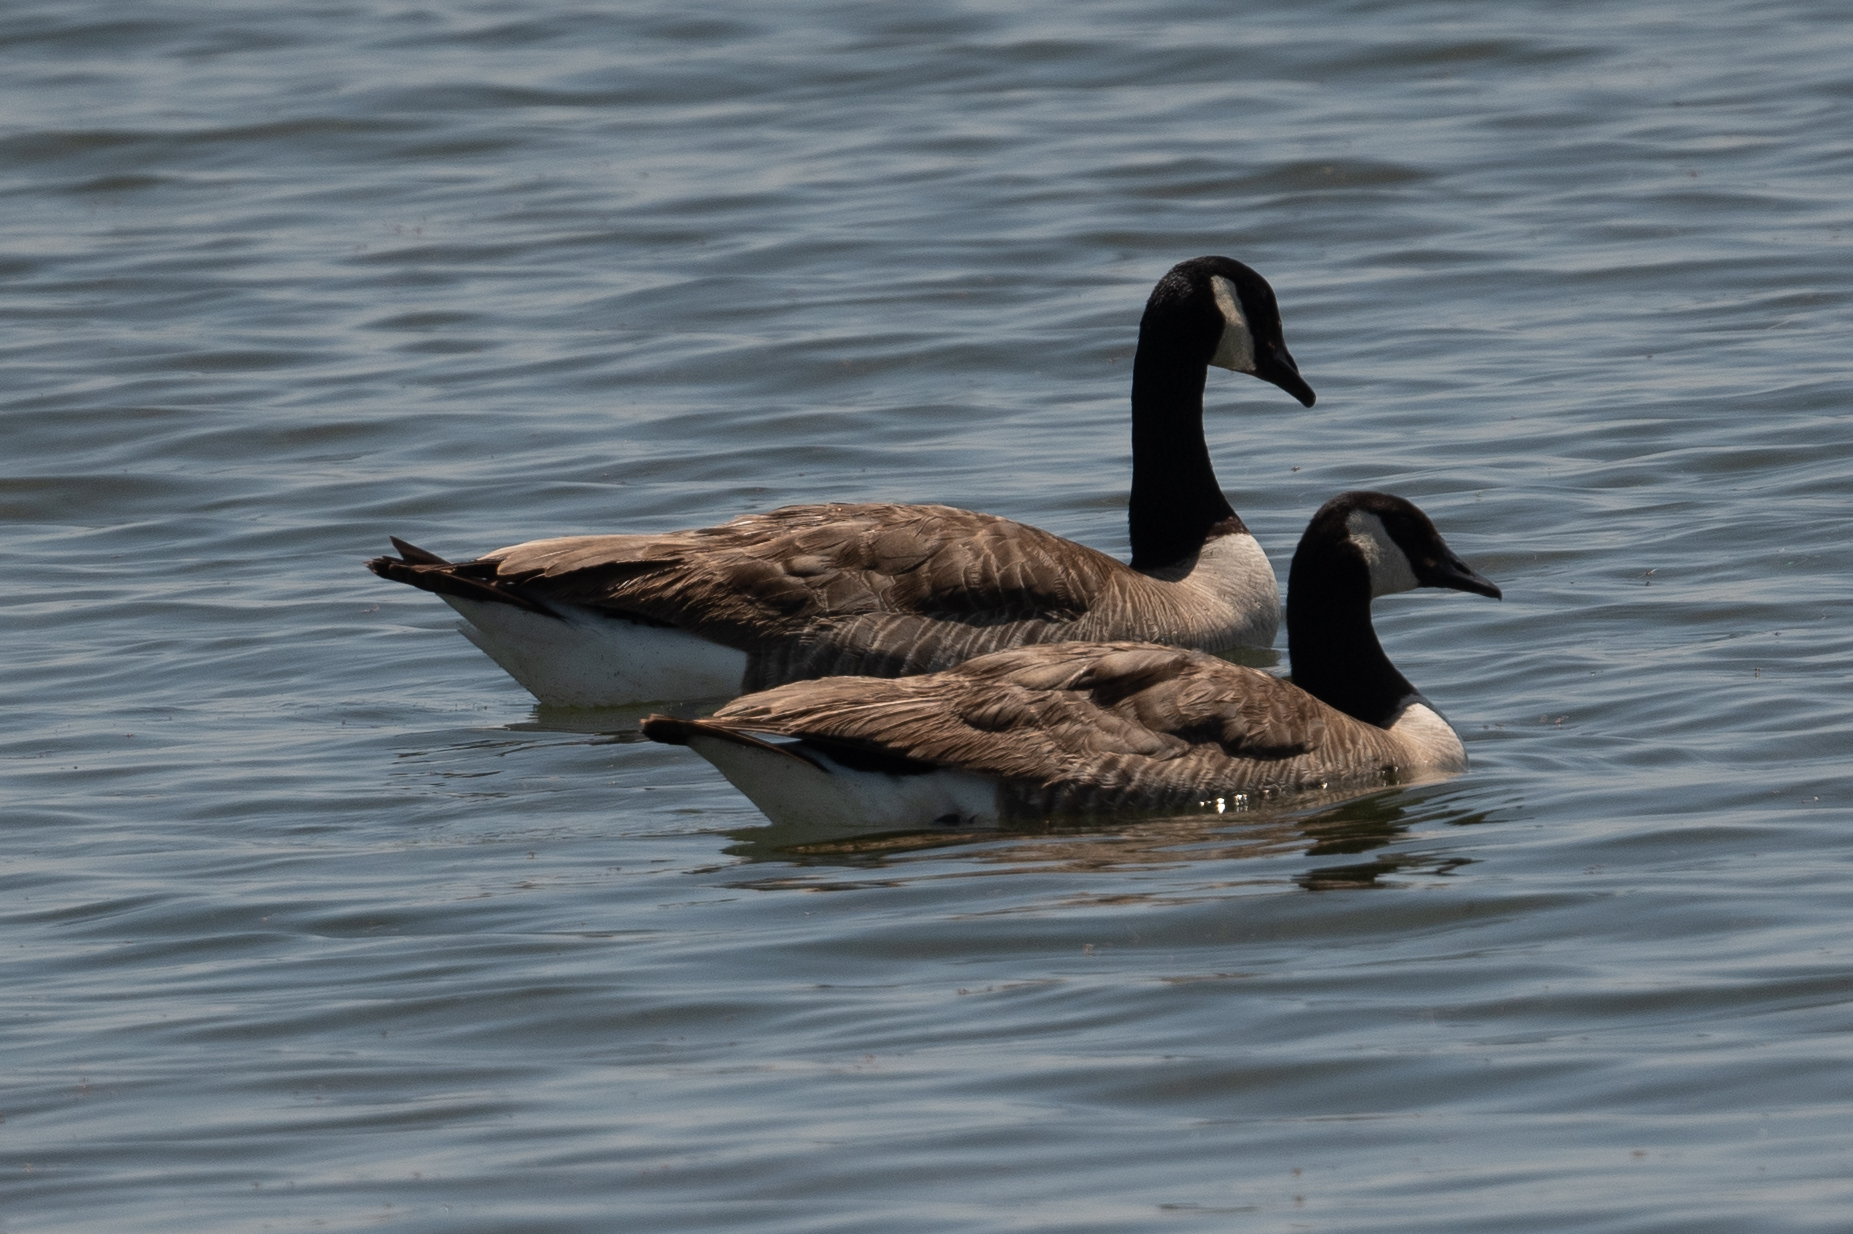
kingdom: Animalia
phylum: Chordata
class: Aves
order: Anseriformes
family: Anatidae
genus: Branta
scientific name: Branta canadensis
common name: Canada goose
